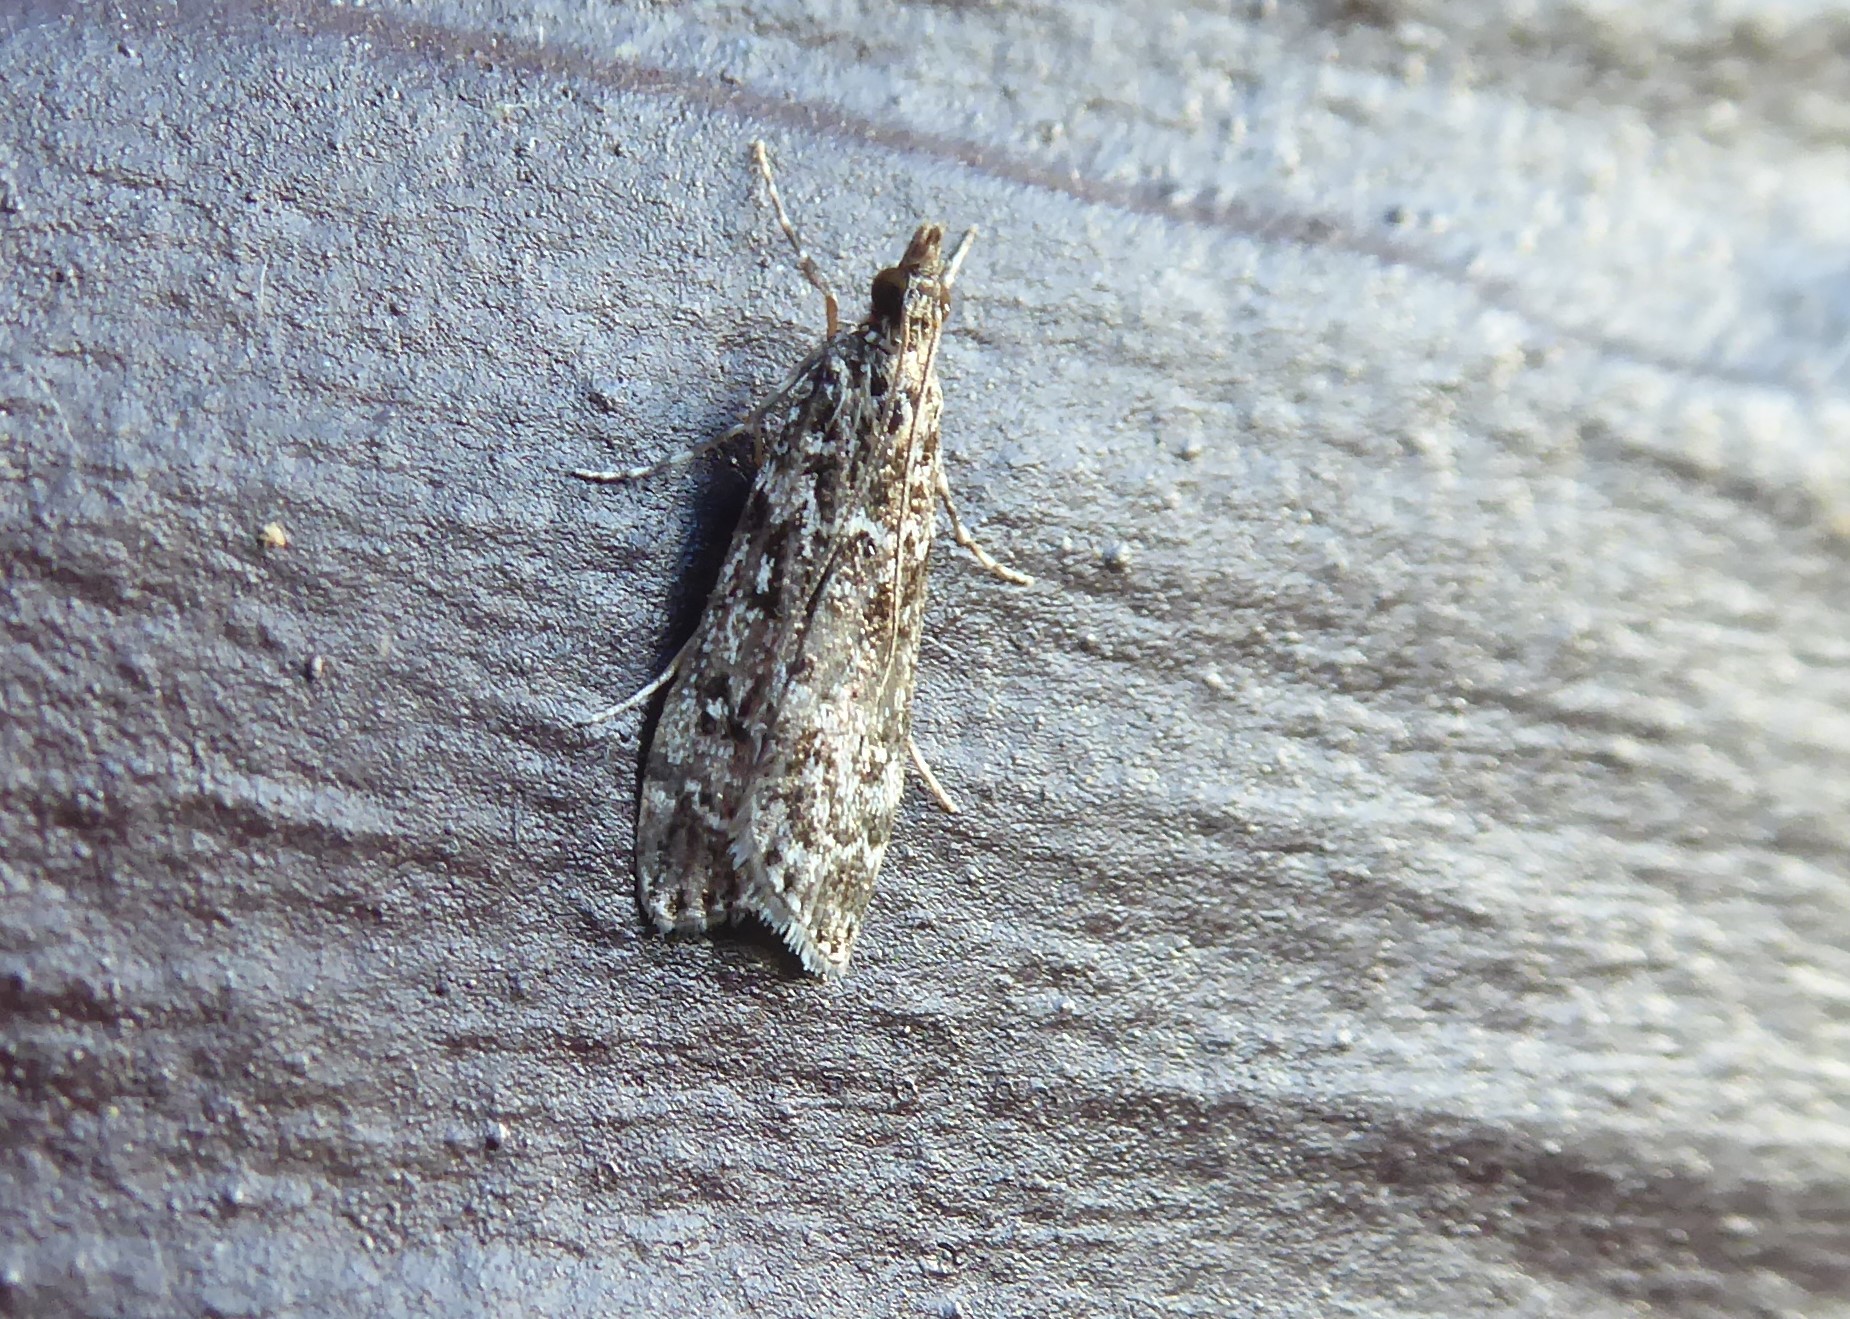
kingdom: Animalia
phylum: Arthropoda
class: Insecta
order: Lepidoptera
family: Crambidae
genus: Eudonia
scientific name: Eudonia philerga
